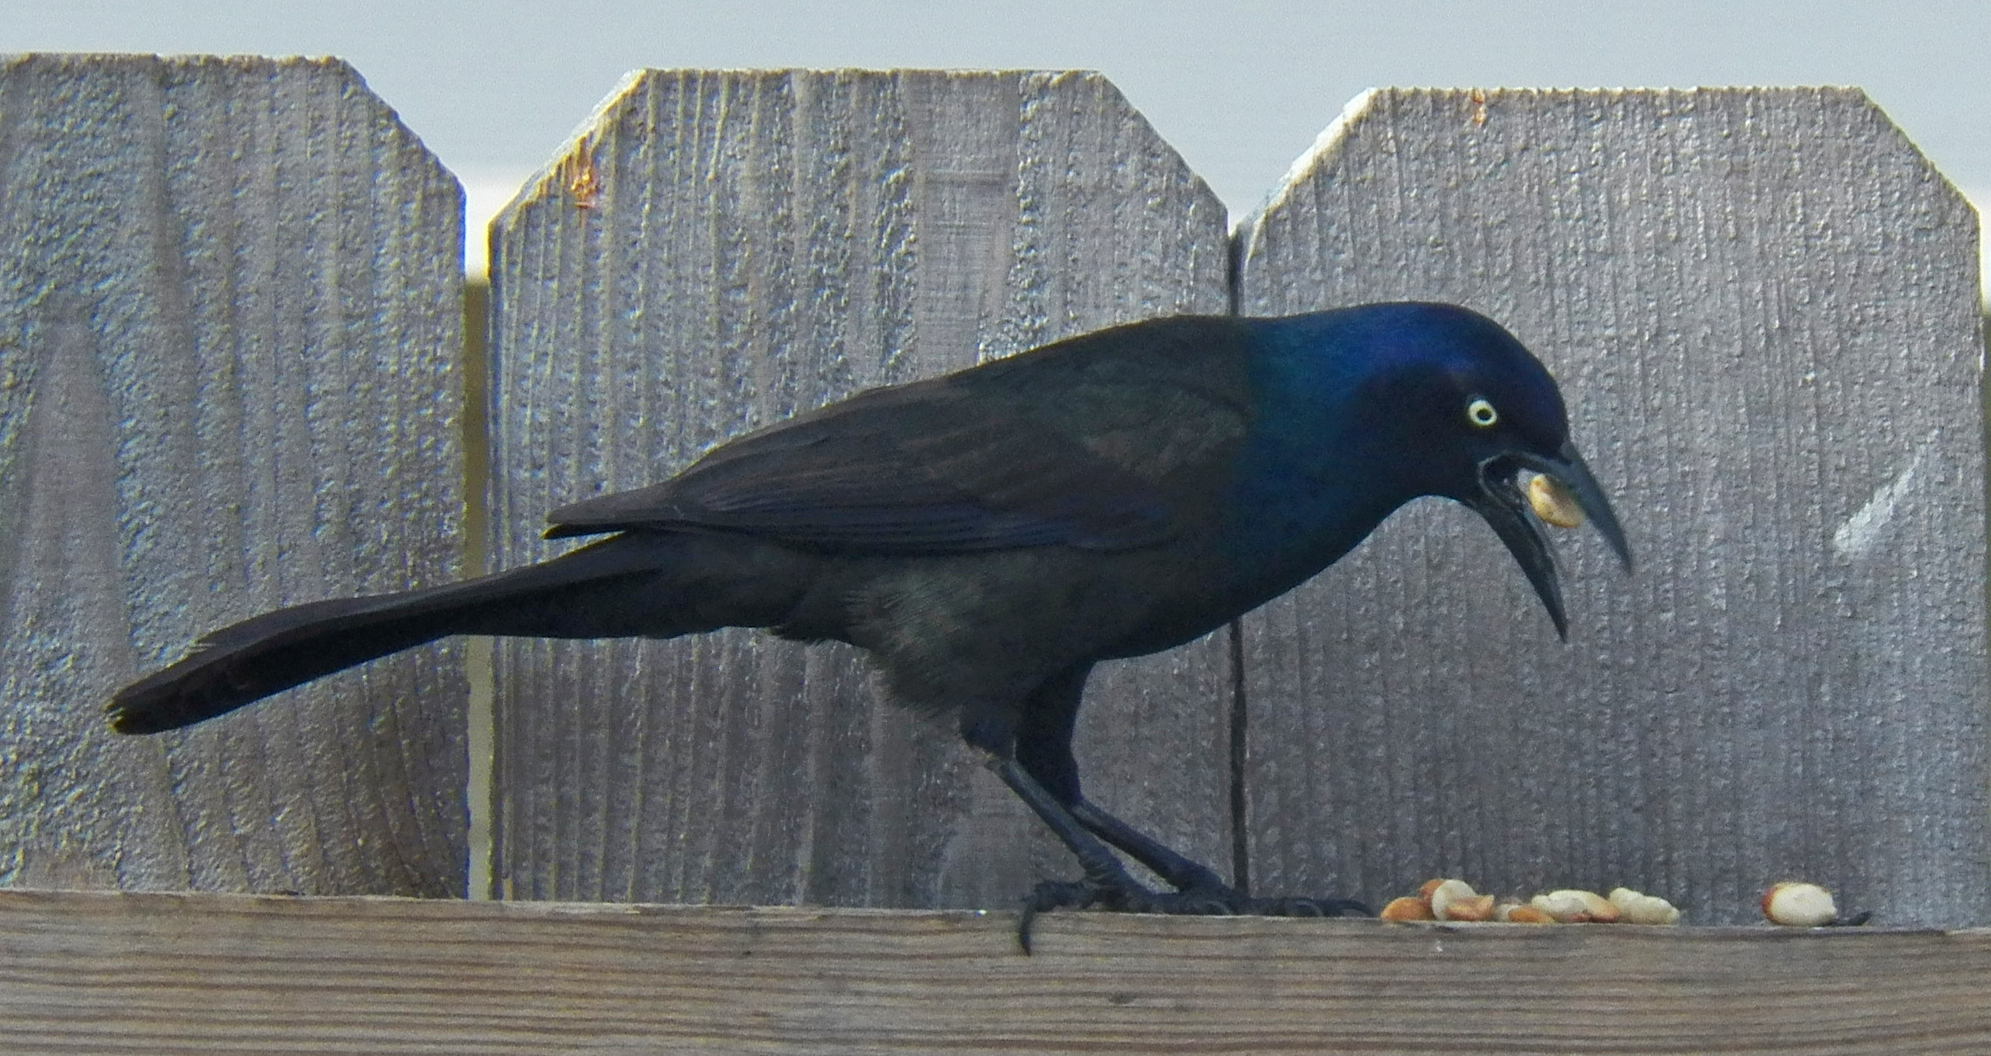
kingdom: Animalia
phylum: Chordata
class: Aves
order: Passeriformes
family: Icteridae
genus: Quiscalus
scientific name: Quiscalus quiscula
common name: Common grackle
